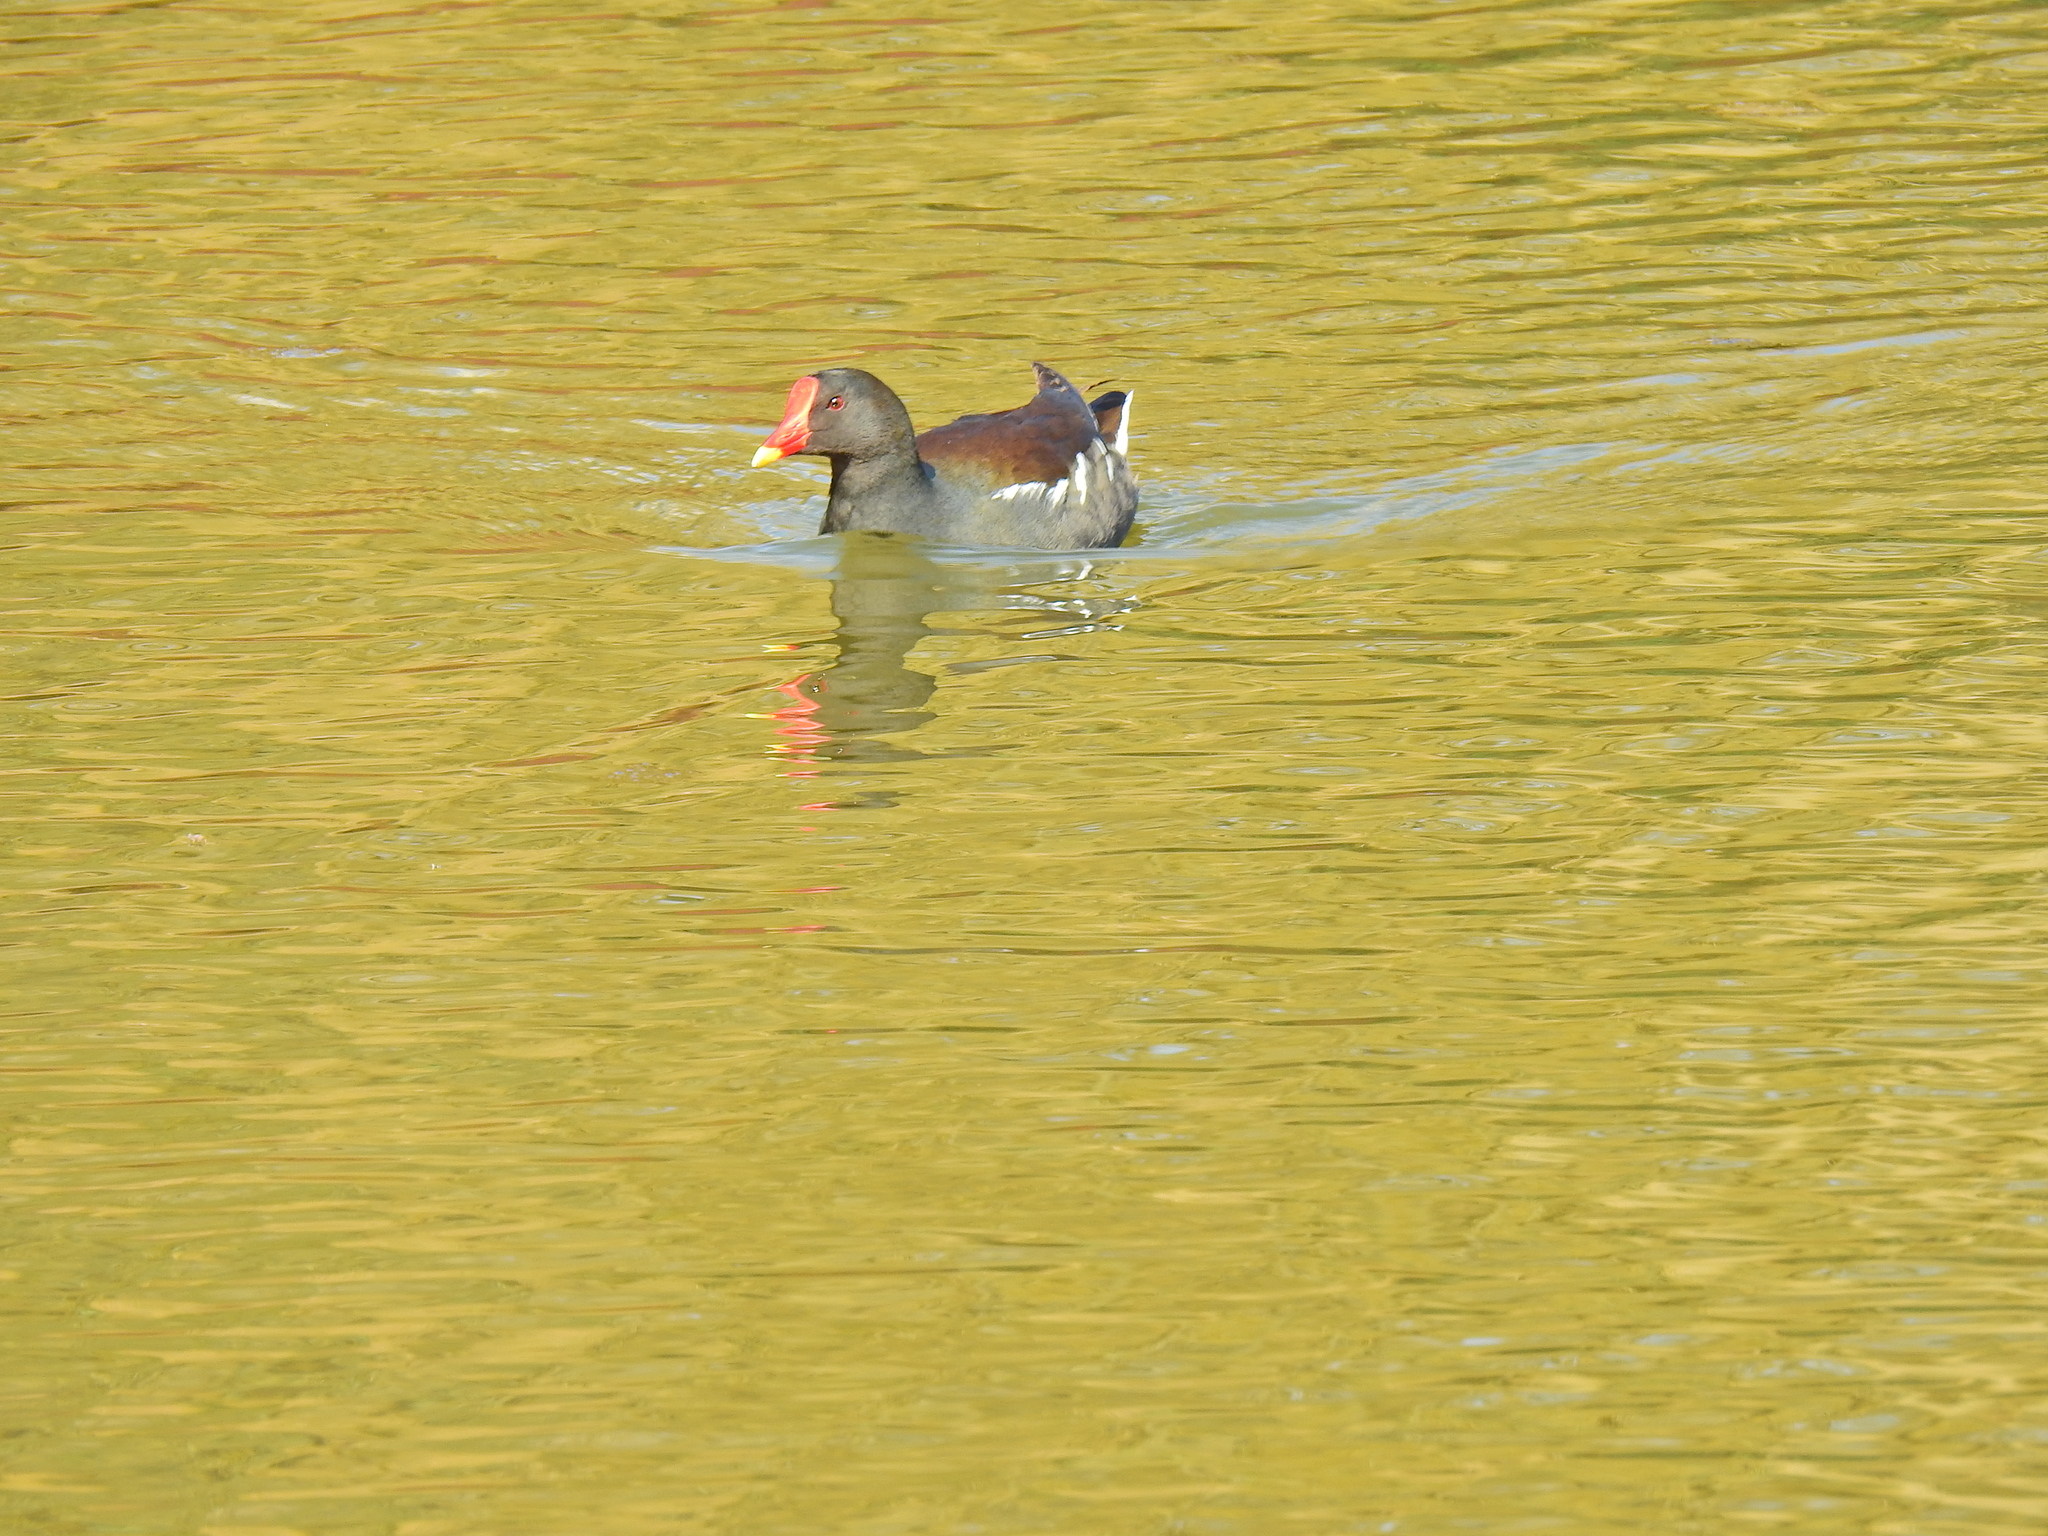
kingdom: Animalia
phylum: Chordata
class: Aves
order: Gruiformes
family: Rallidae
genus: Gallinula
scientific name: Gallinula chloropus
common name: Common moorhen
